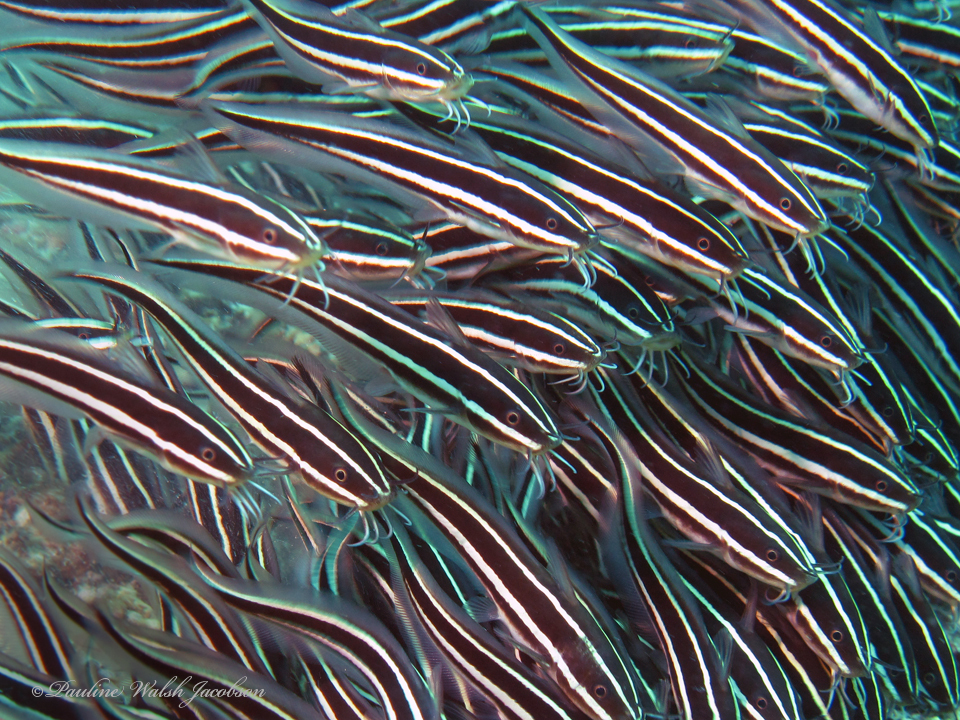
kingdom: Animalia
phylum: Chordata
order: Siluriformes
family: Plotosidae
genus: Plotosus
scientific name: Plotosus lineatus
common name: Striped eel catfish
